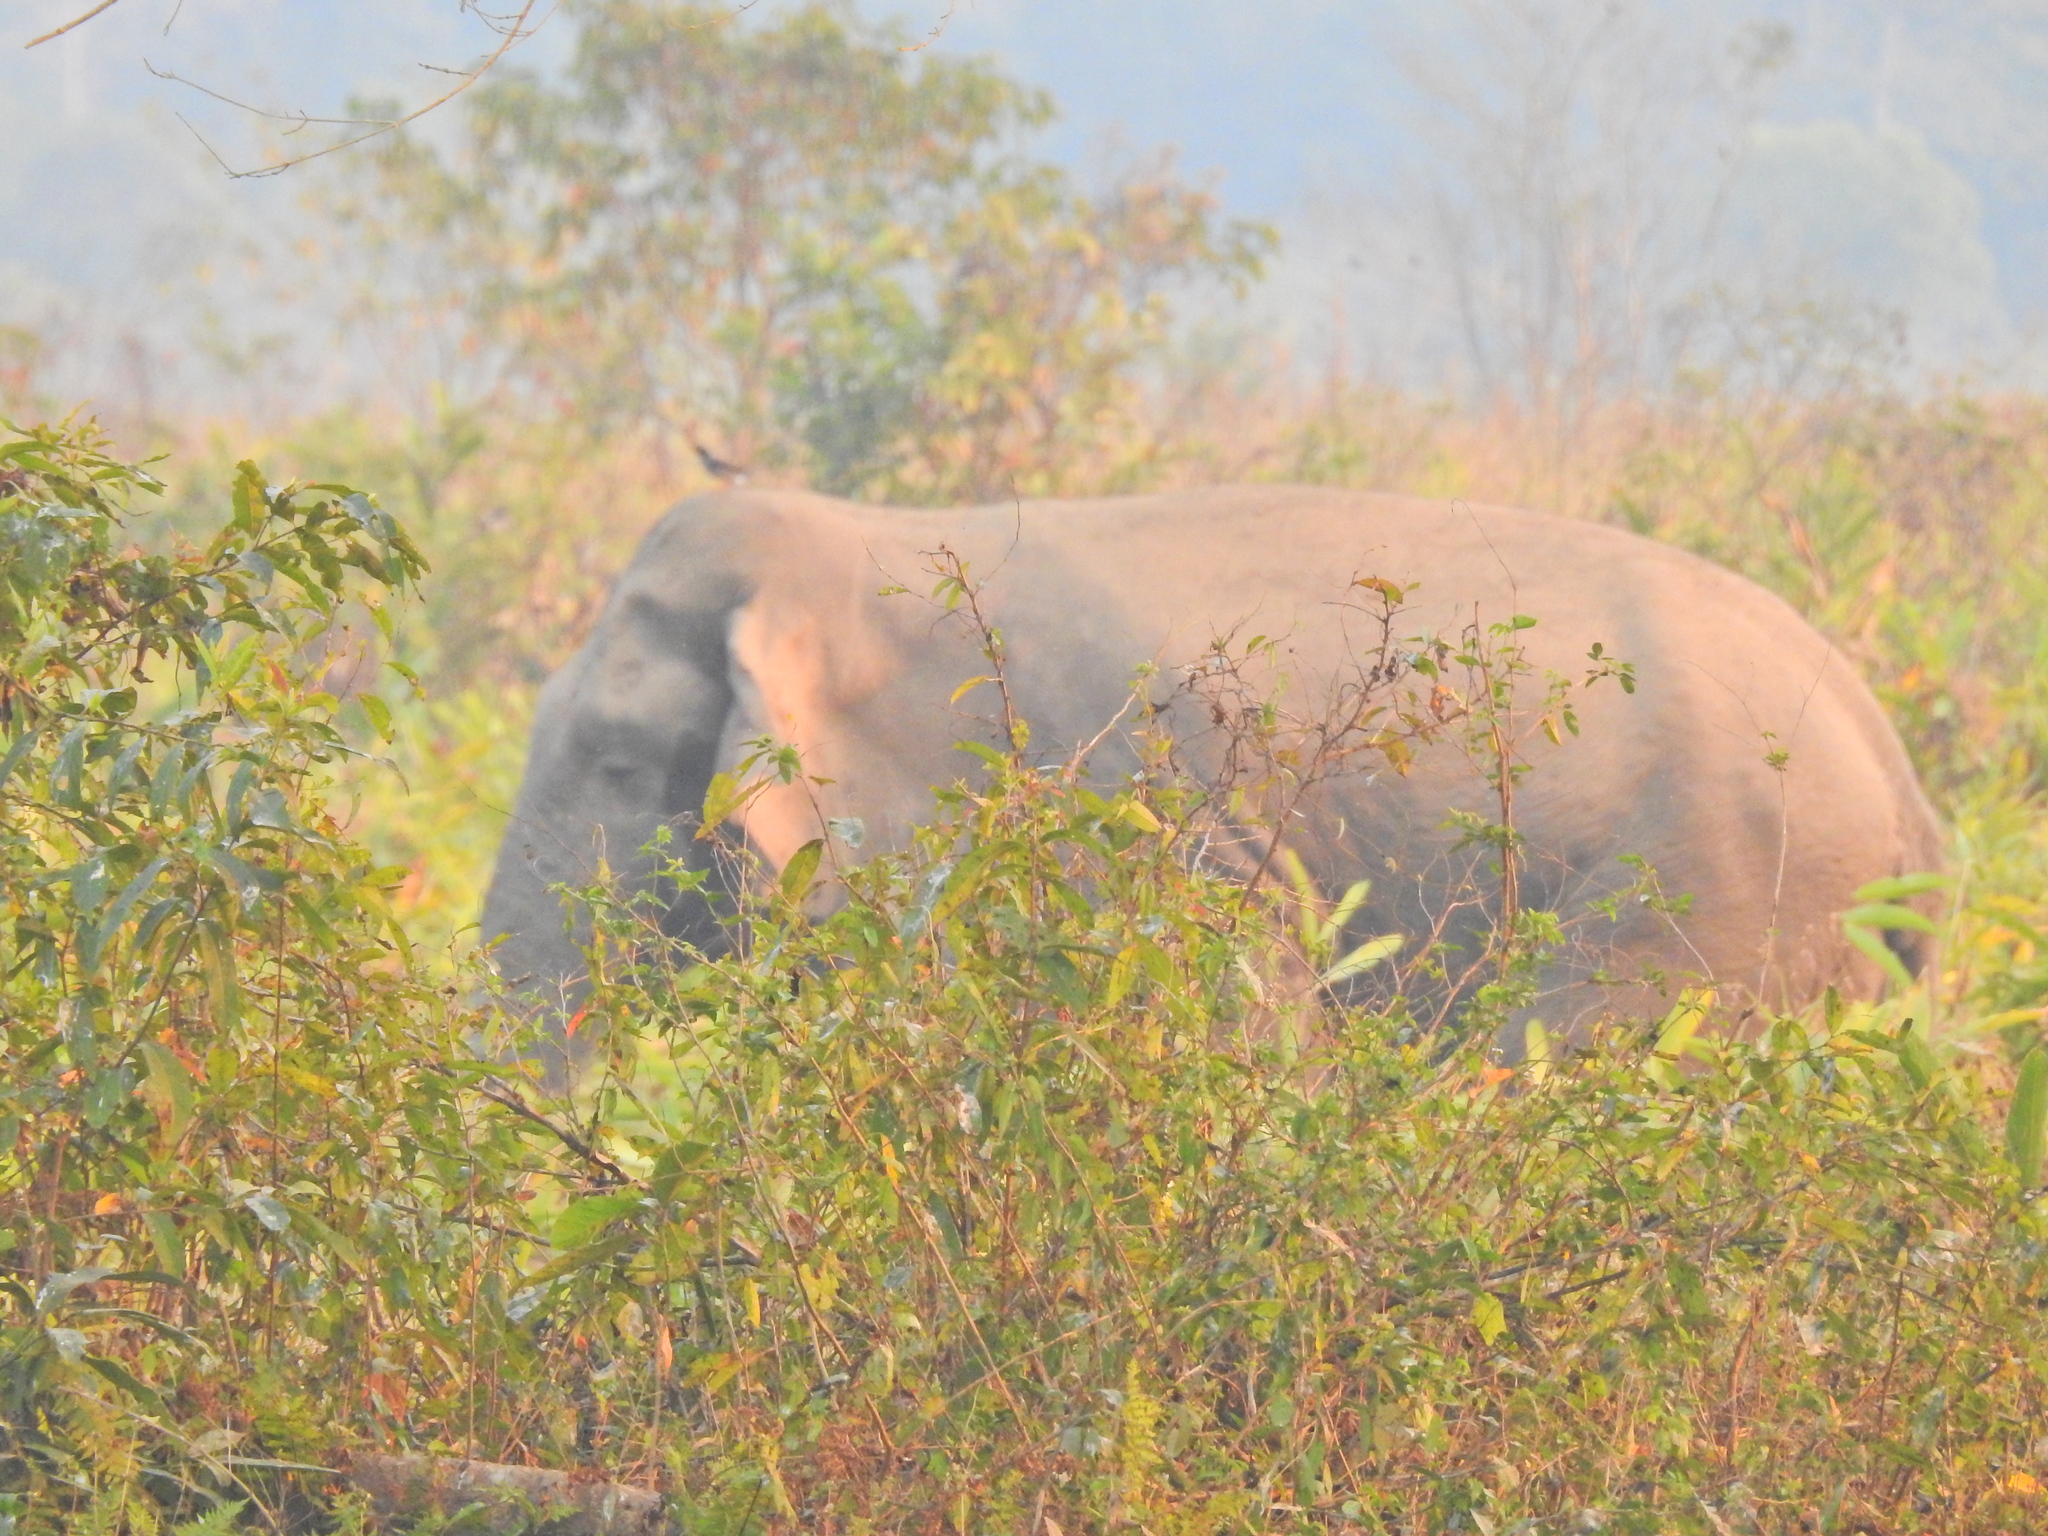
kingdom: Animalia
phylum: Chordata
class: Mammalia
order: Proboscidea
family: Elephantidae
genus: Elephas
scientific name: Elephas maximus
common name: Asian elephant
